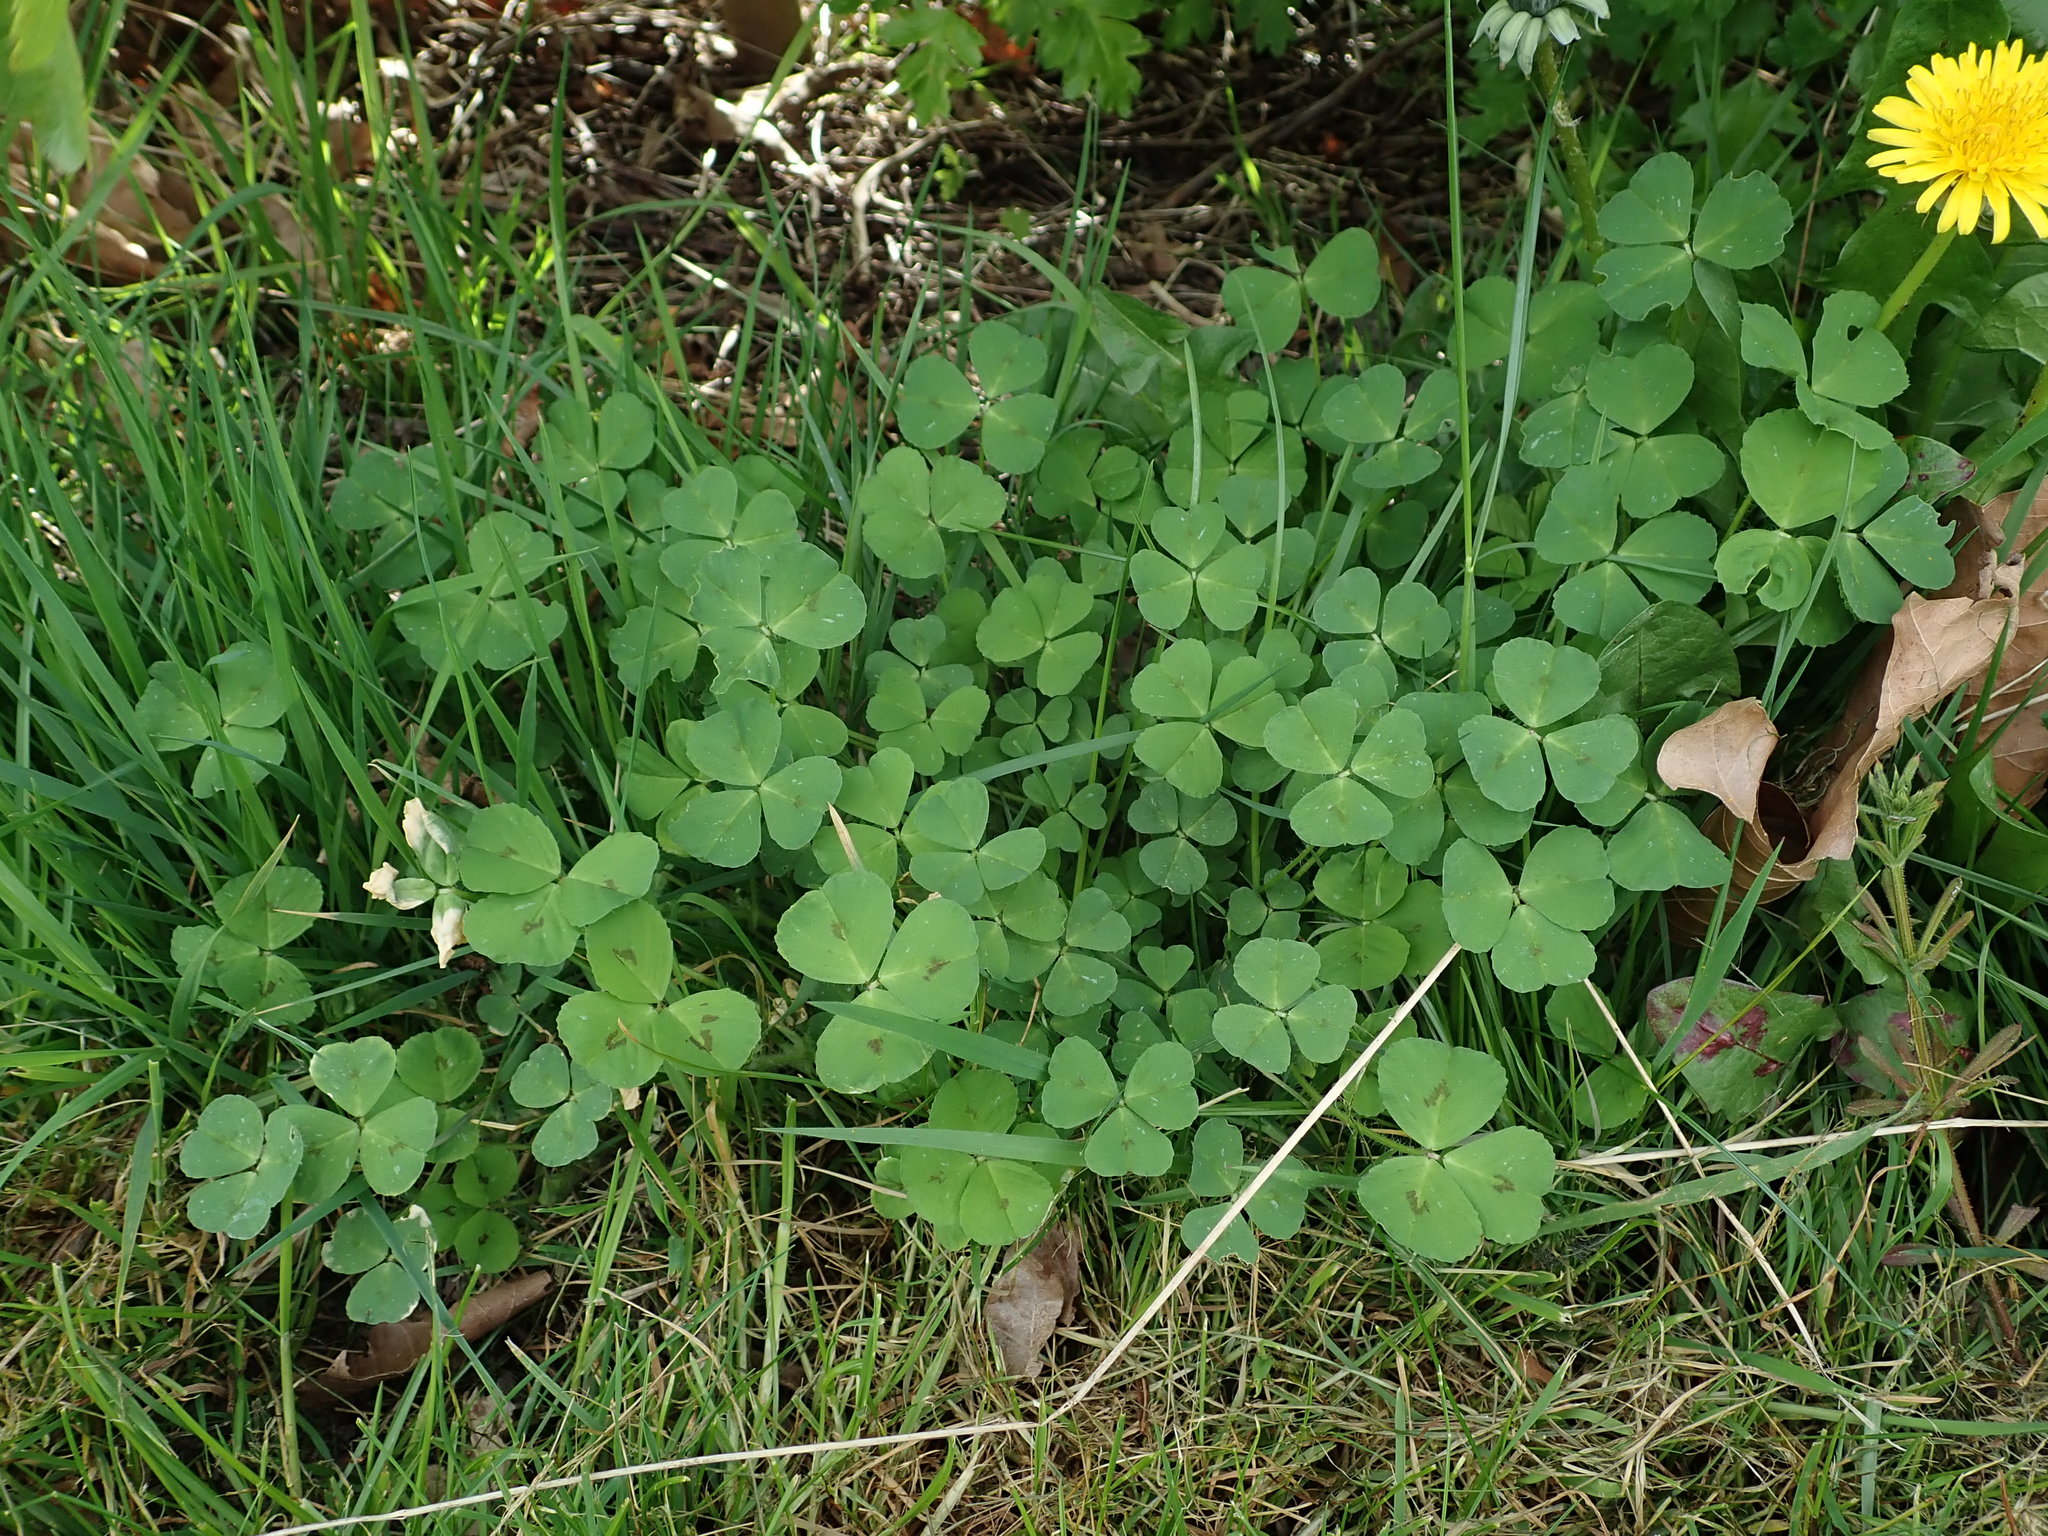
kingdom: Plantae
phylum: Tracheophyta
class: Magnoliopsida
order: Fabales
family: Fabaceae
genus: Medicago
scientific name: Medicago arabica
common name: Spotted medick
